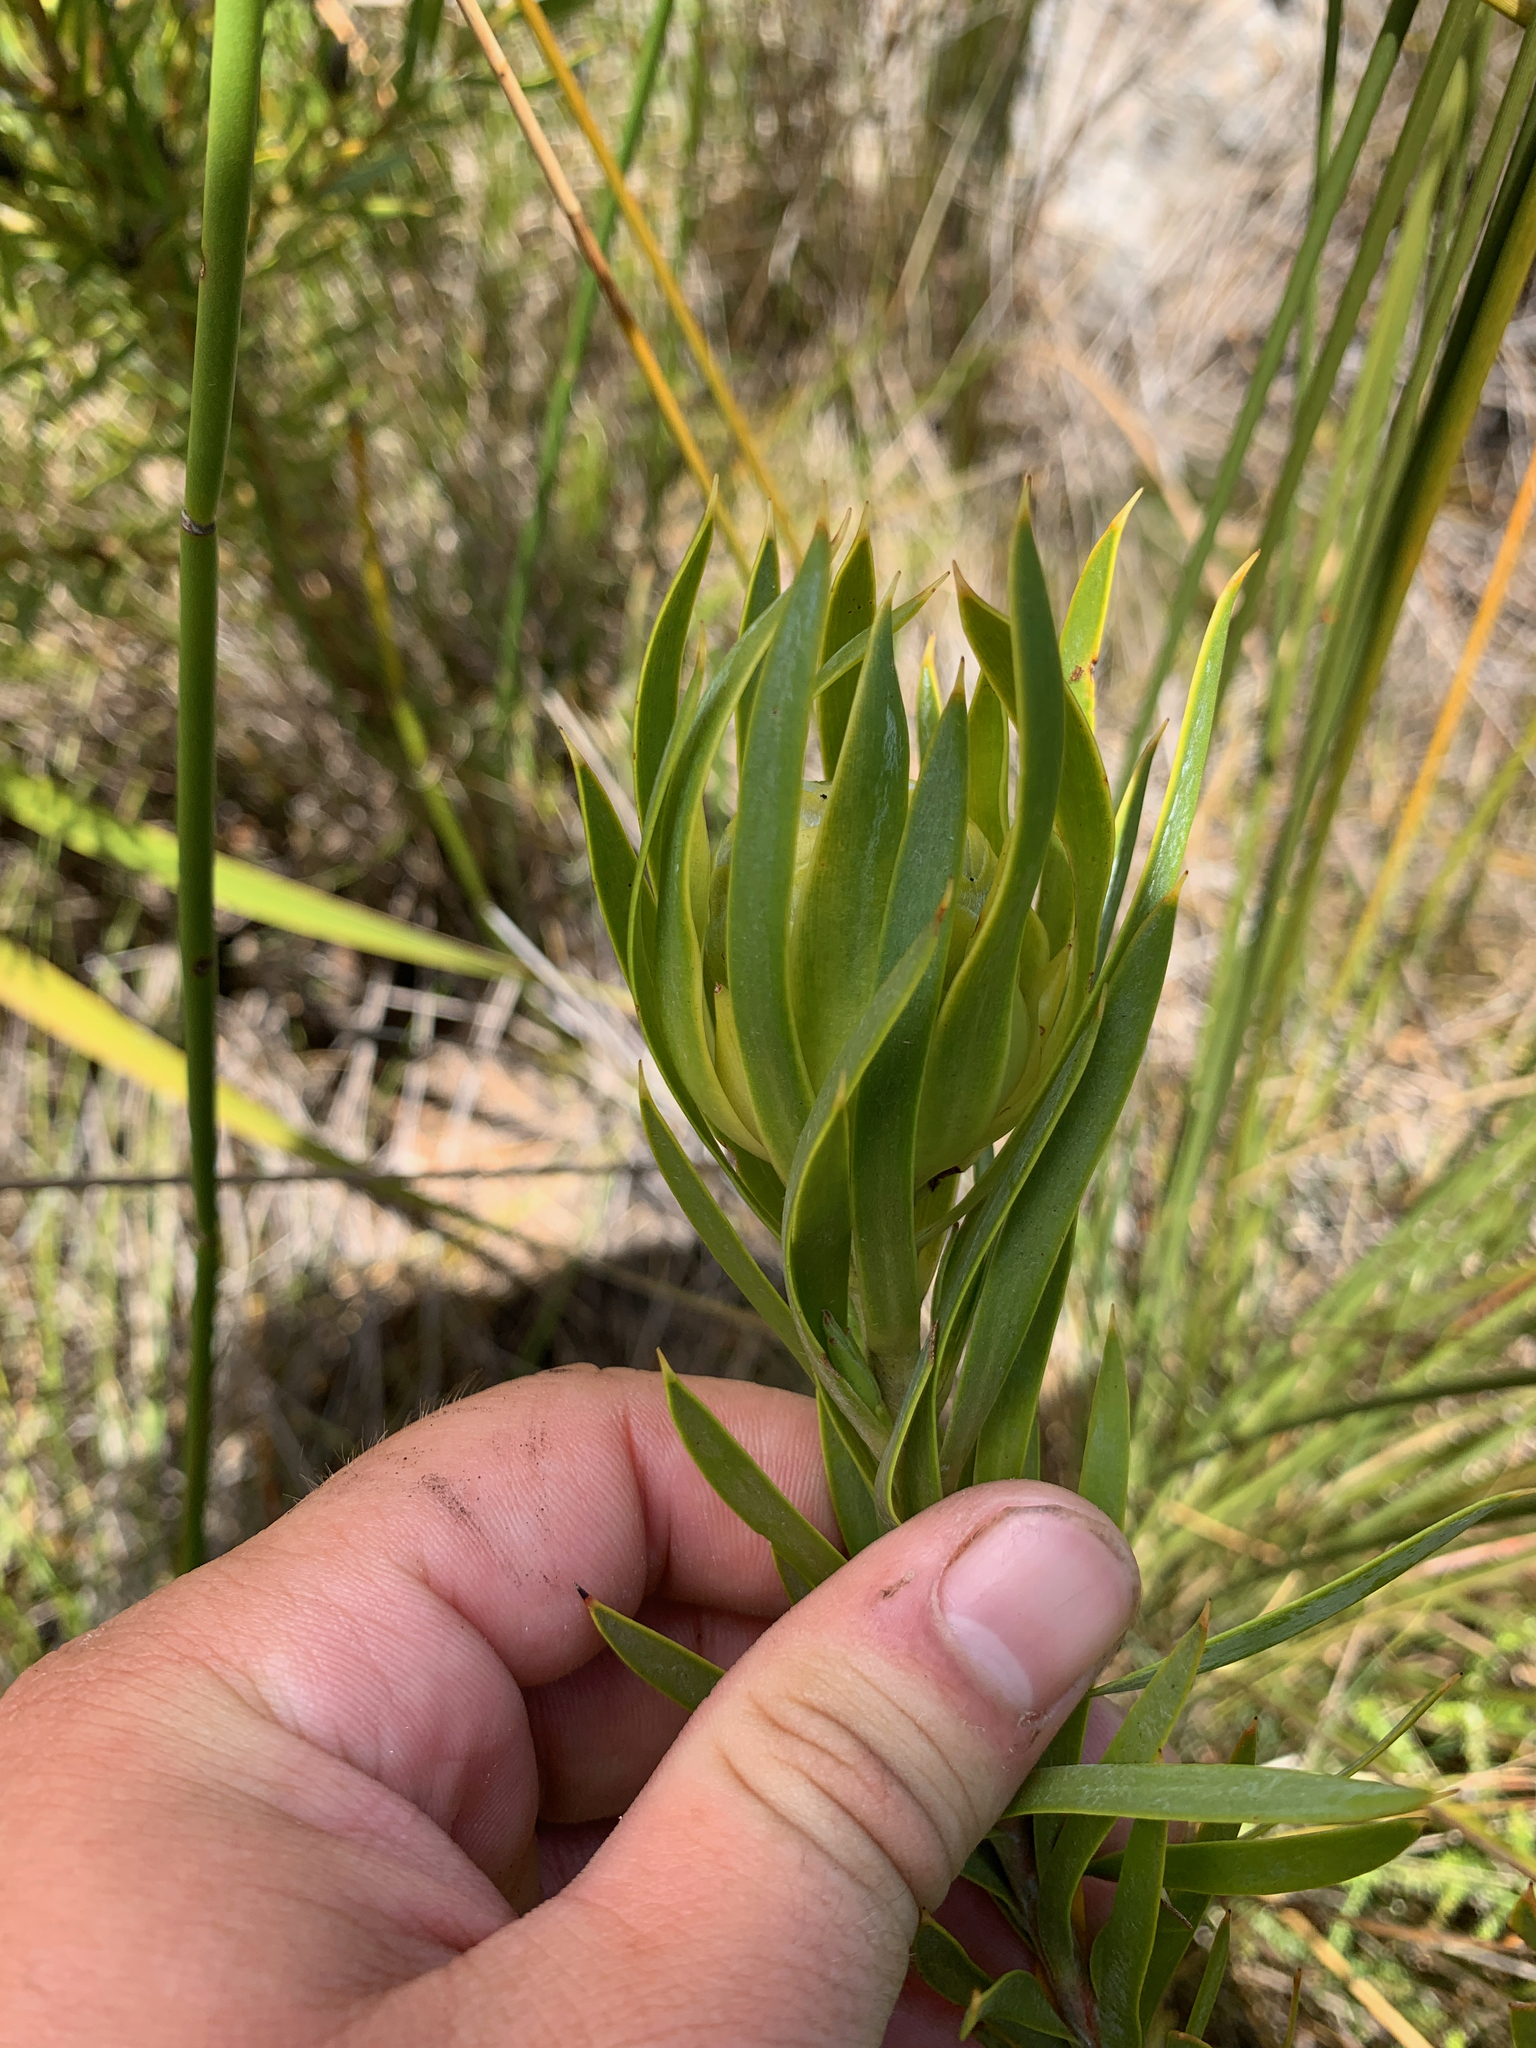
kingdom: Plantae
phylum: Tracheophyta
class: Magnoliopsida
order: Proteales
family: Proteaceae
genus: Leucadendron
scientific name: Leucadendron laureolum
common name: Golden sunshinebush
